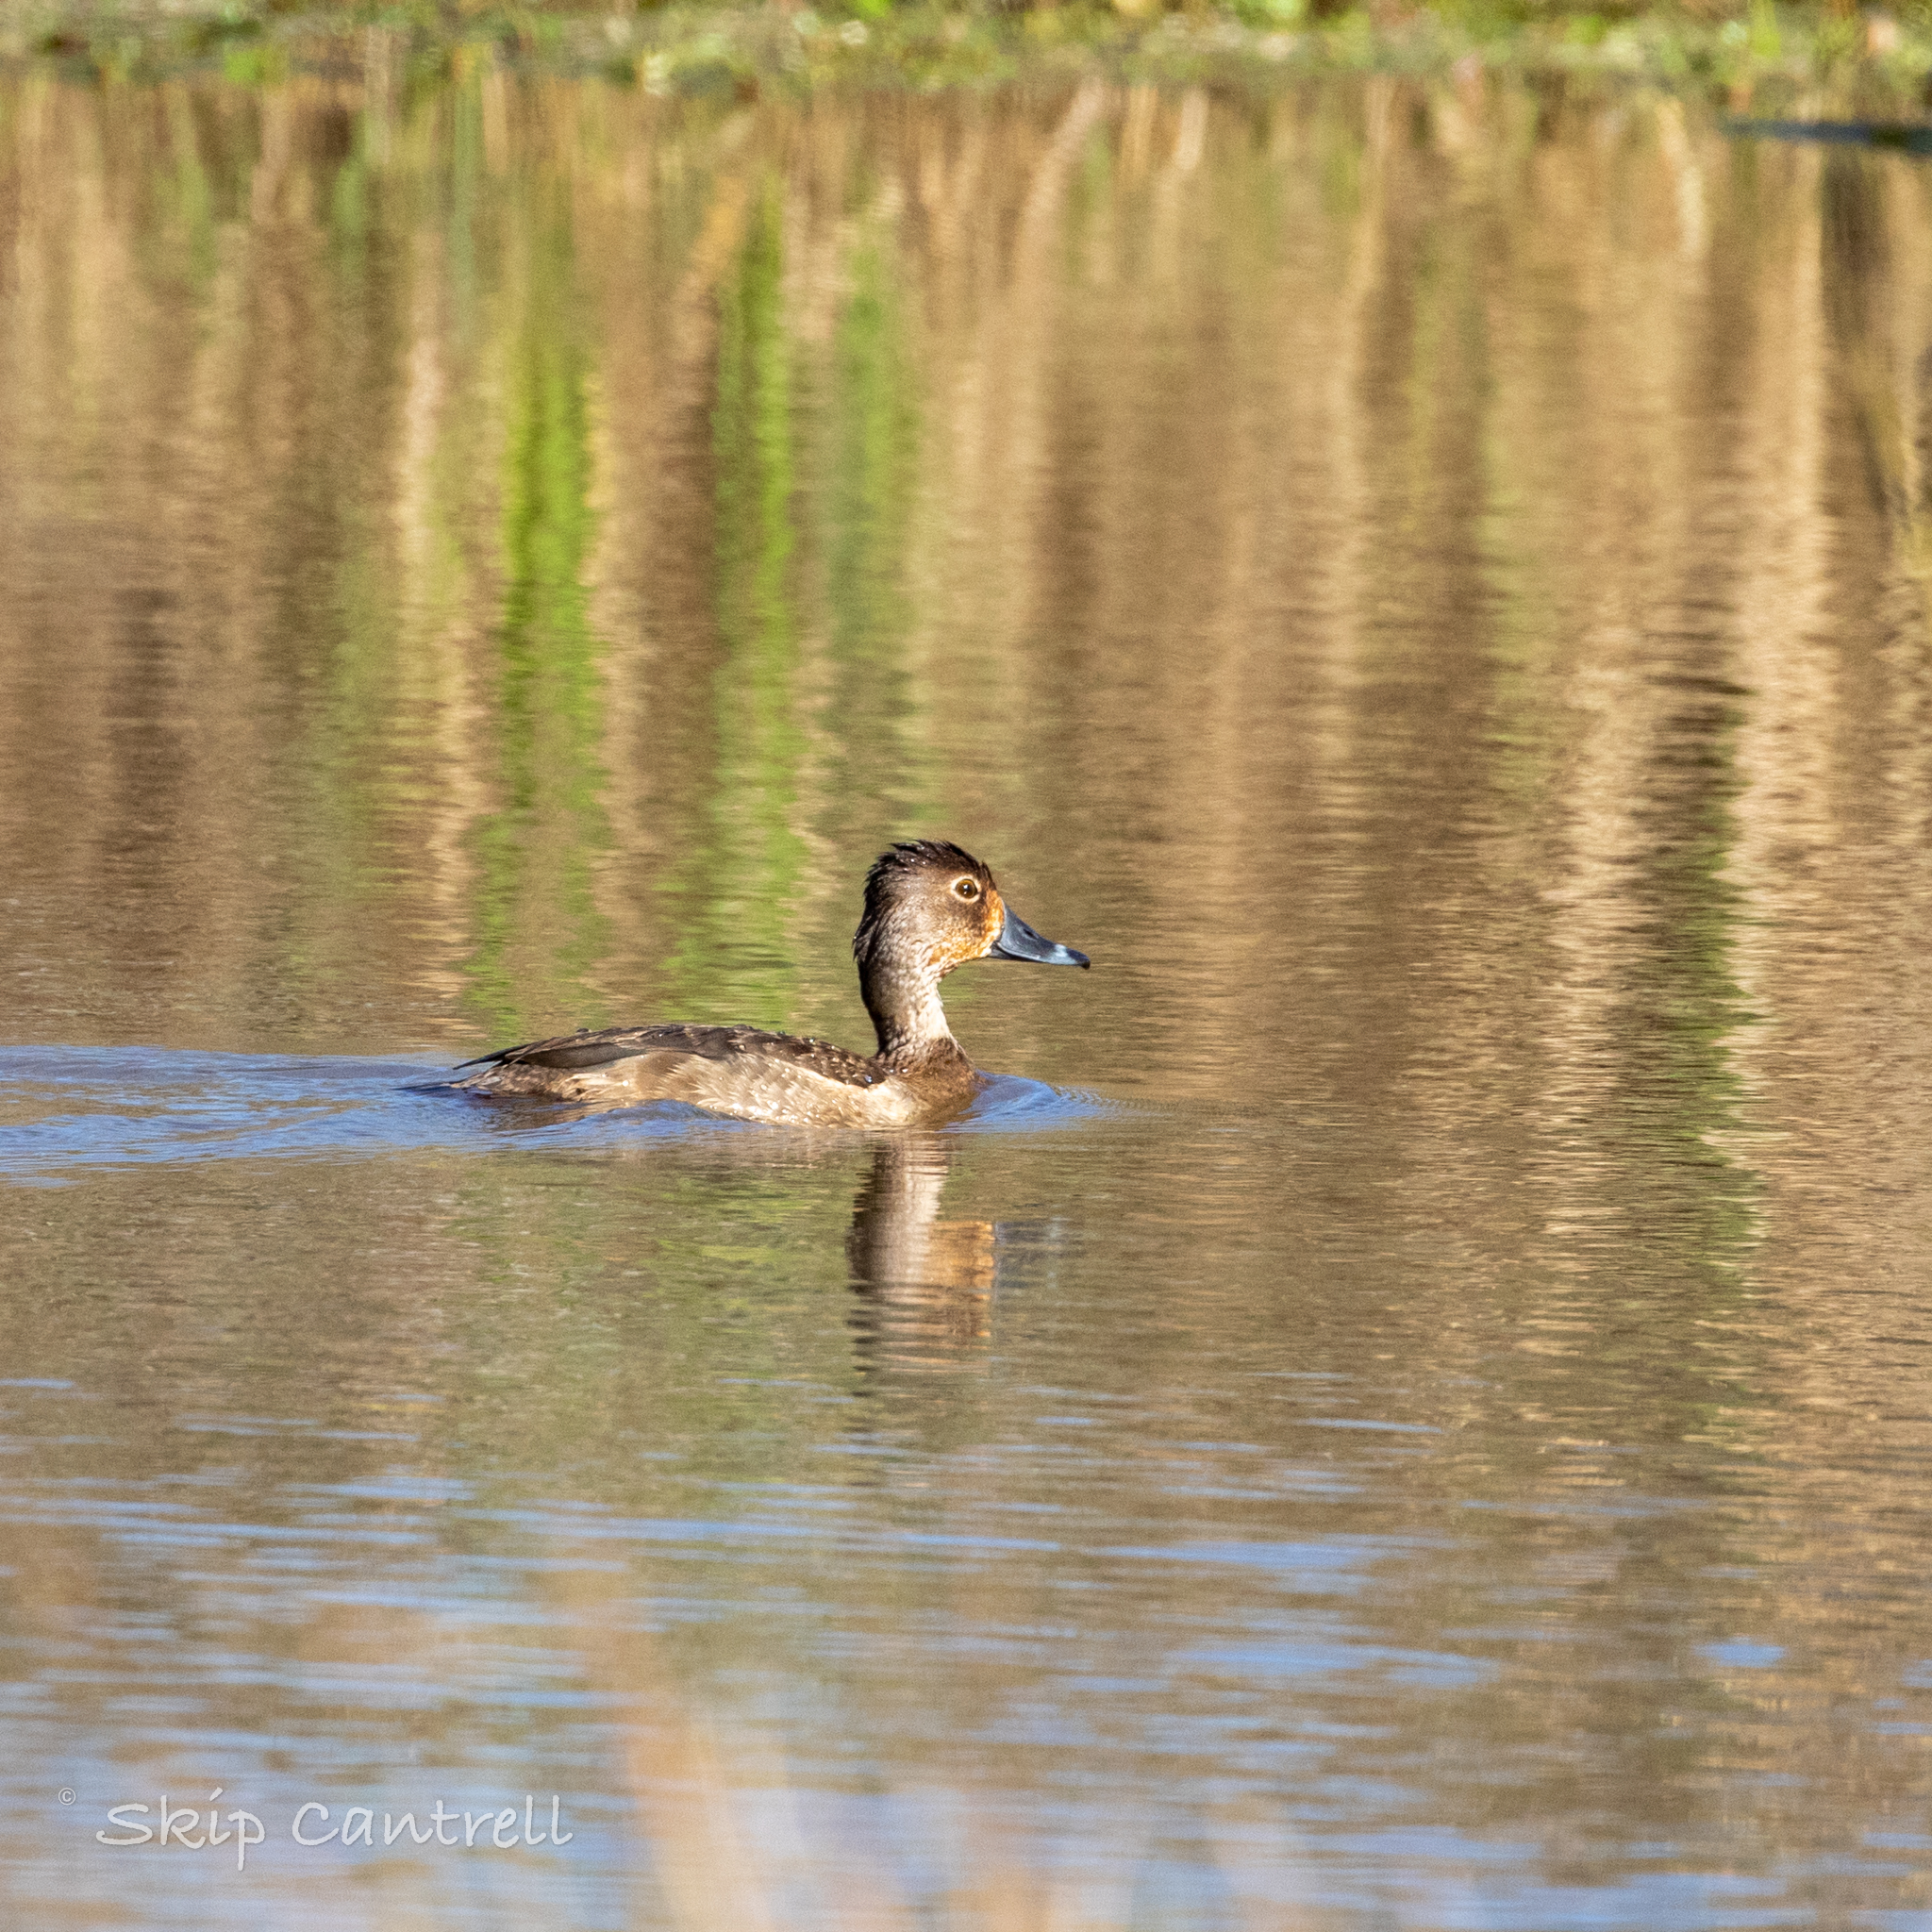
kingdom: Animalia
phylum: Chordata
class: Aves
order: Anseriformes
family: Anatidae
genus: Aythya
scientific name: Aythya collaris
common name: Ring-necked duck
